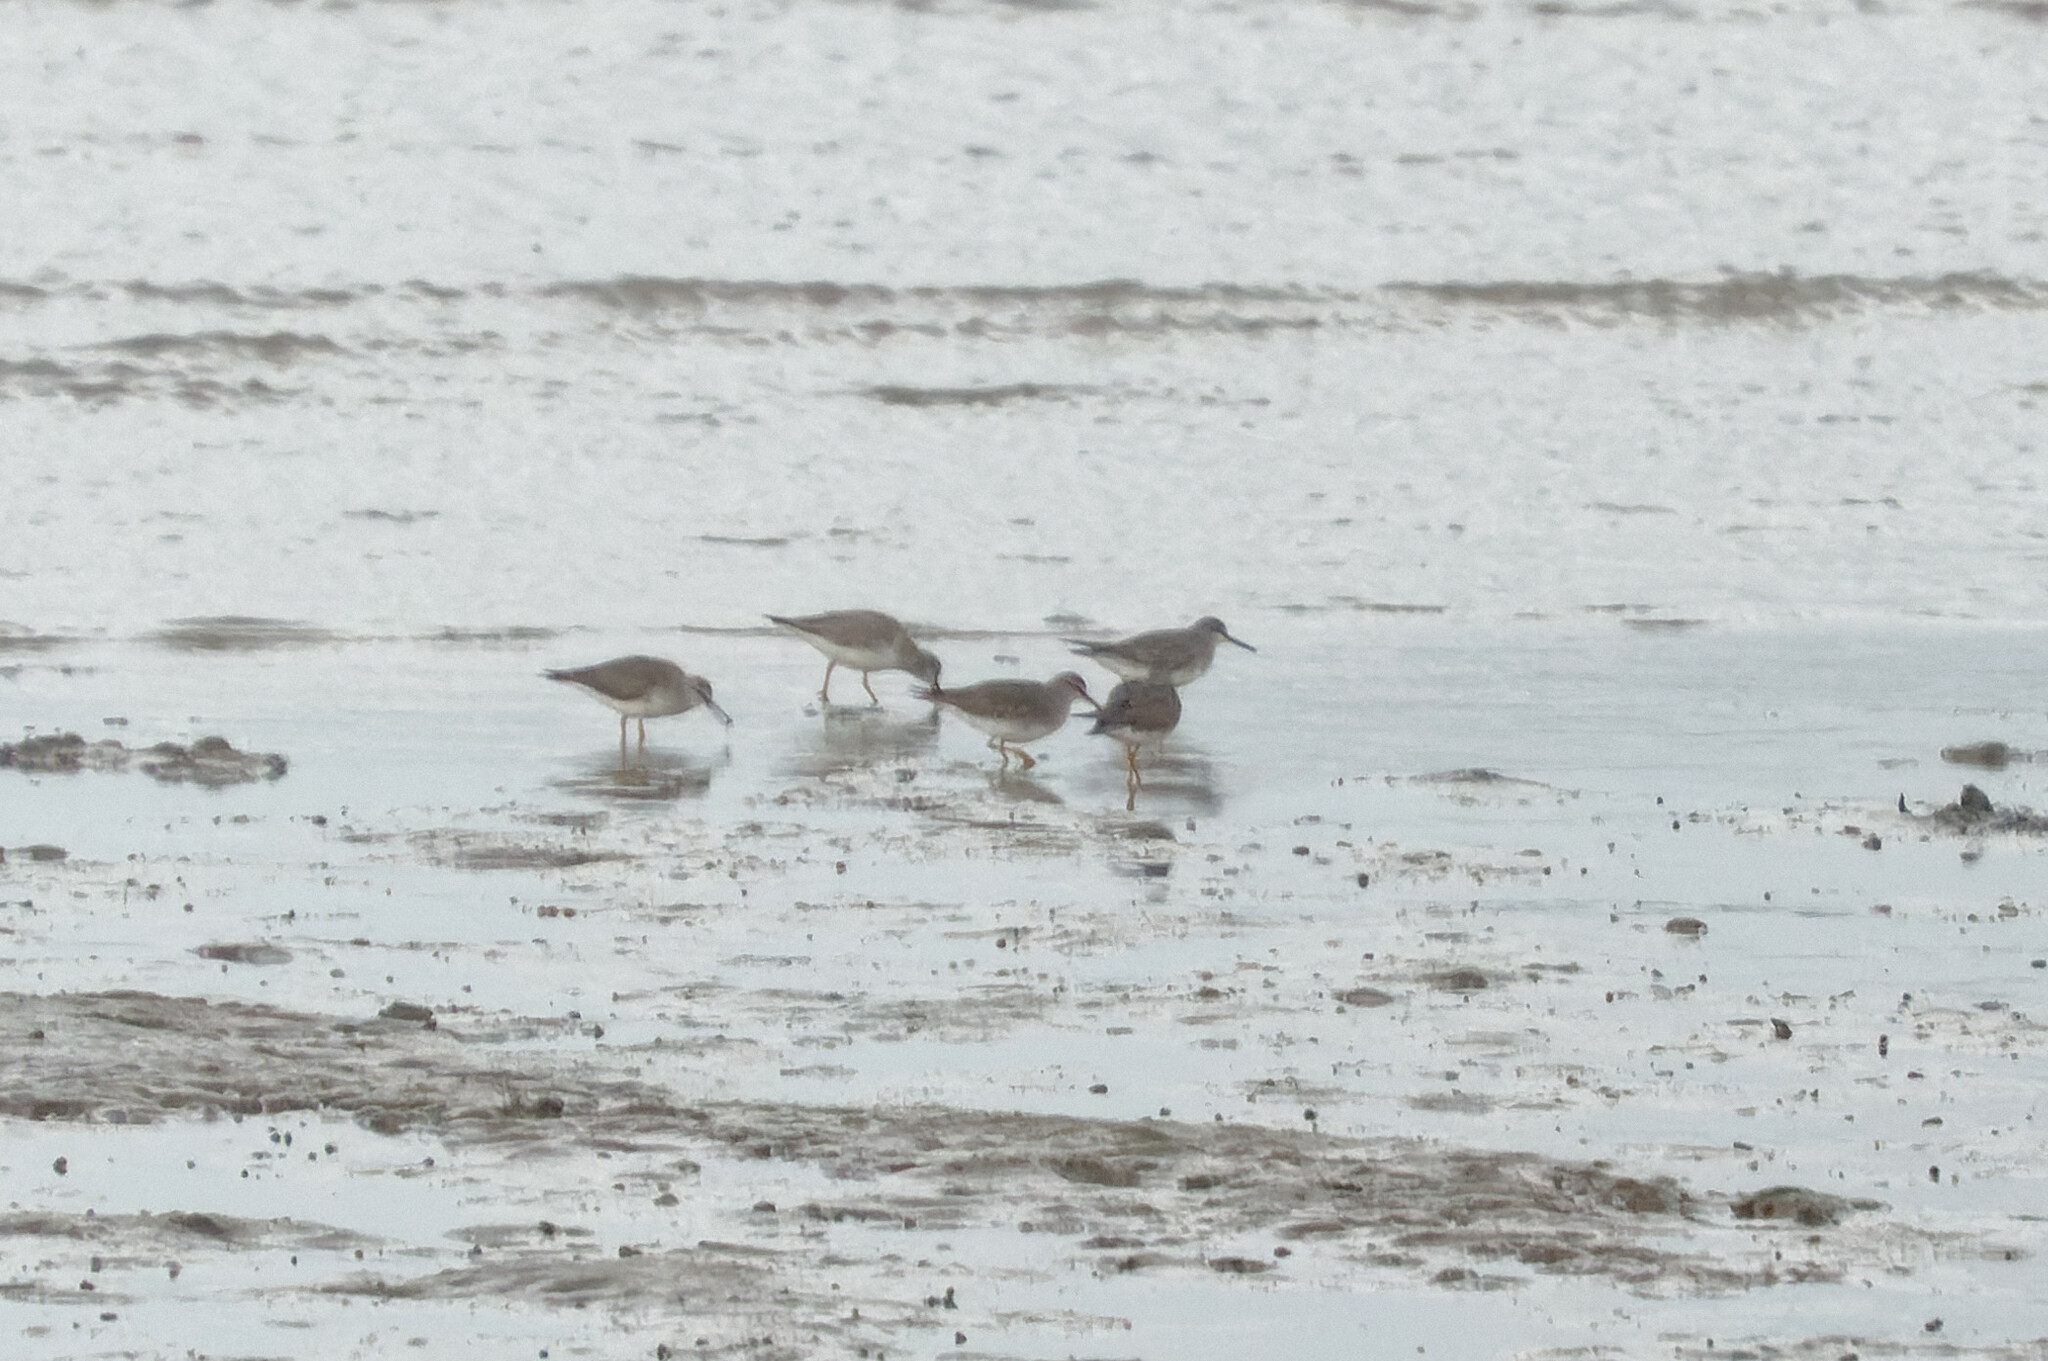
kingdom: Animalia
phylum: Chordata
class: Aves
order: Charadriiformes
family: Scolopacidae
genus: Tringa
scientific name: Tringa brevipes
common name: Grey-tailed tattler
